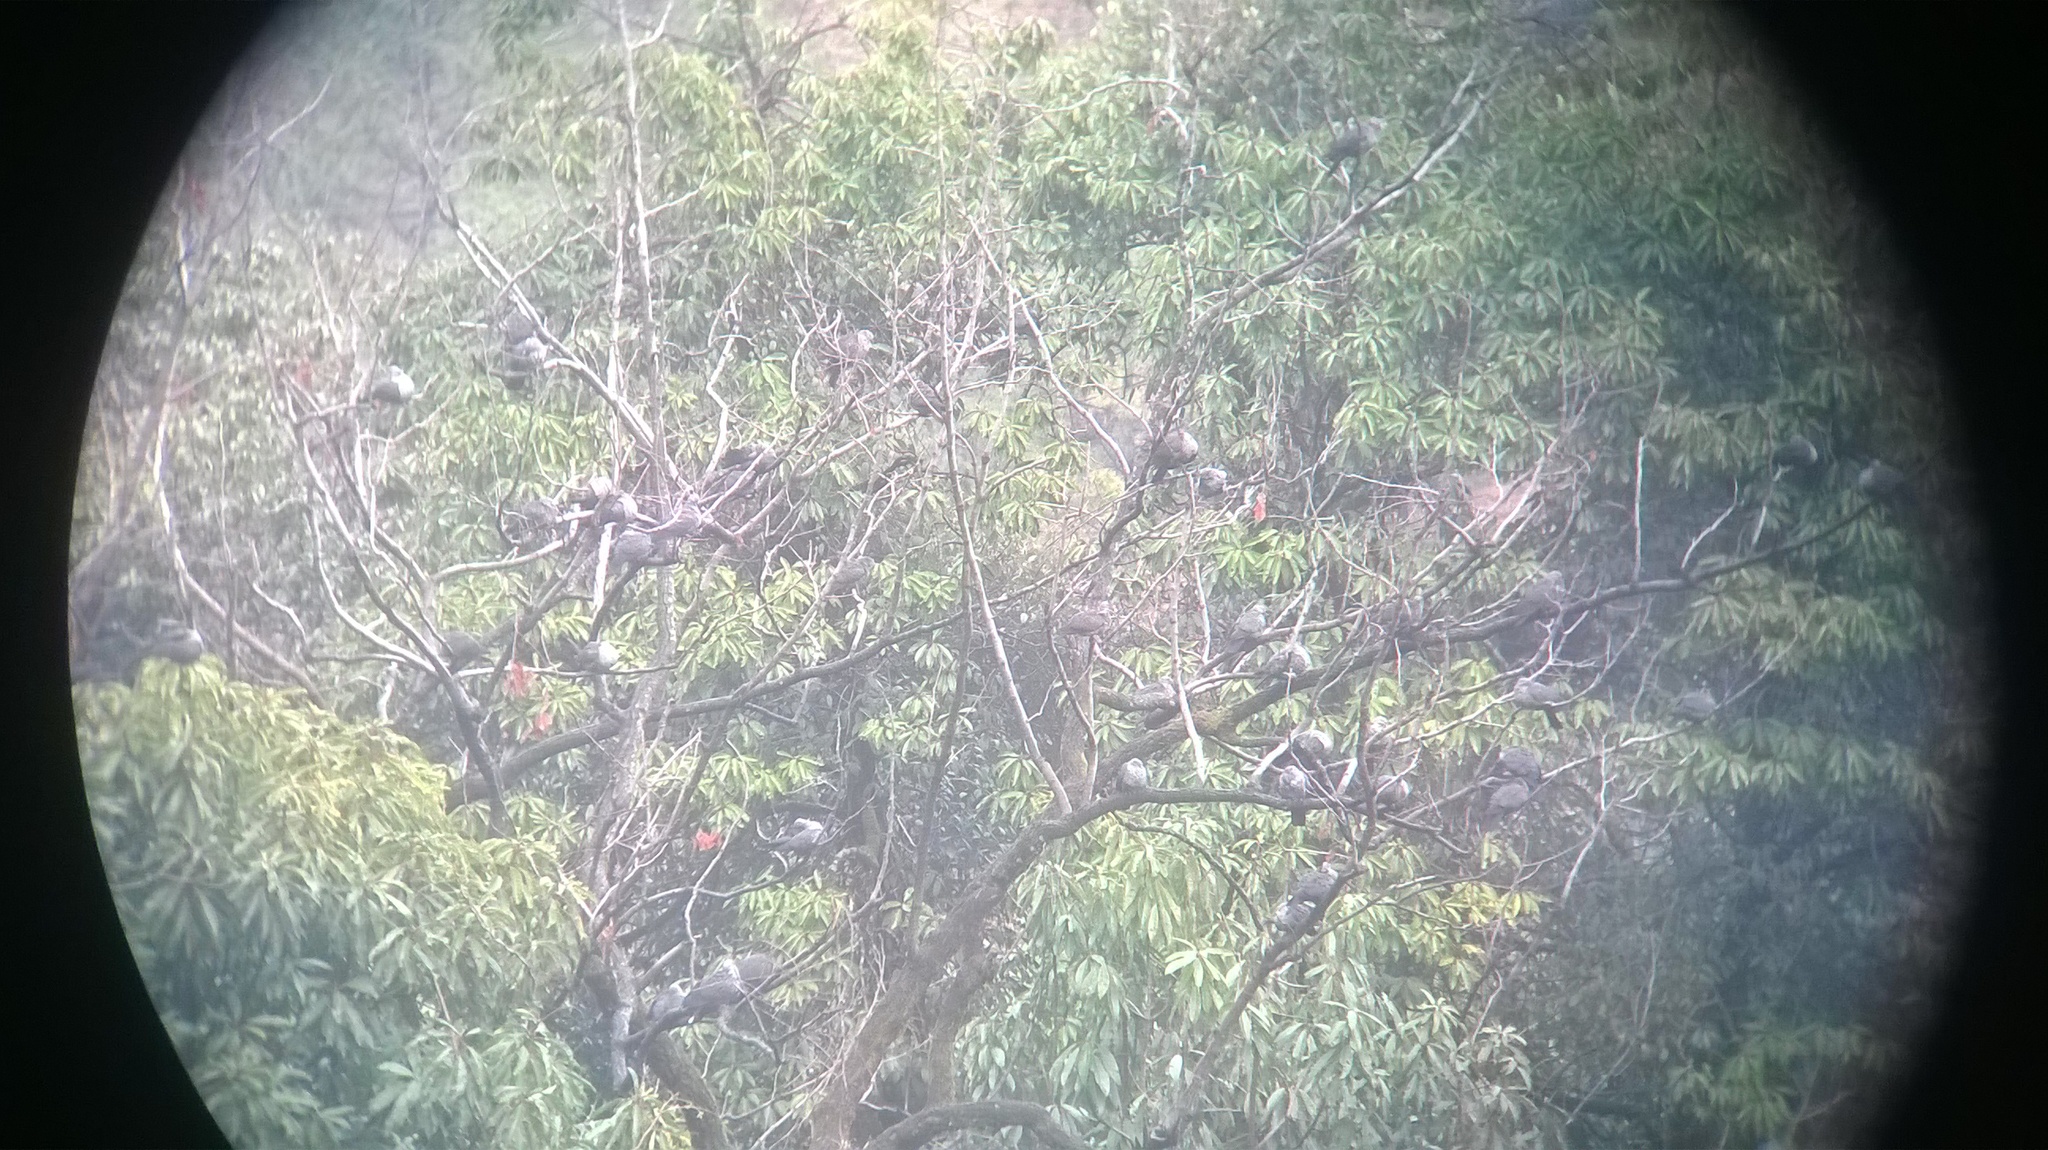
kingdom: Animalia
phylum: Chordata
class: Aves
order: Columbiformes
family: Columbidae
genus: Columba
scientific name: Columba hodgsonii
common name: Speckled wood pigeon
